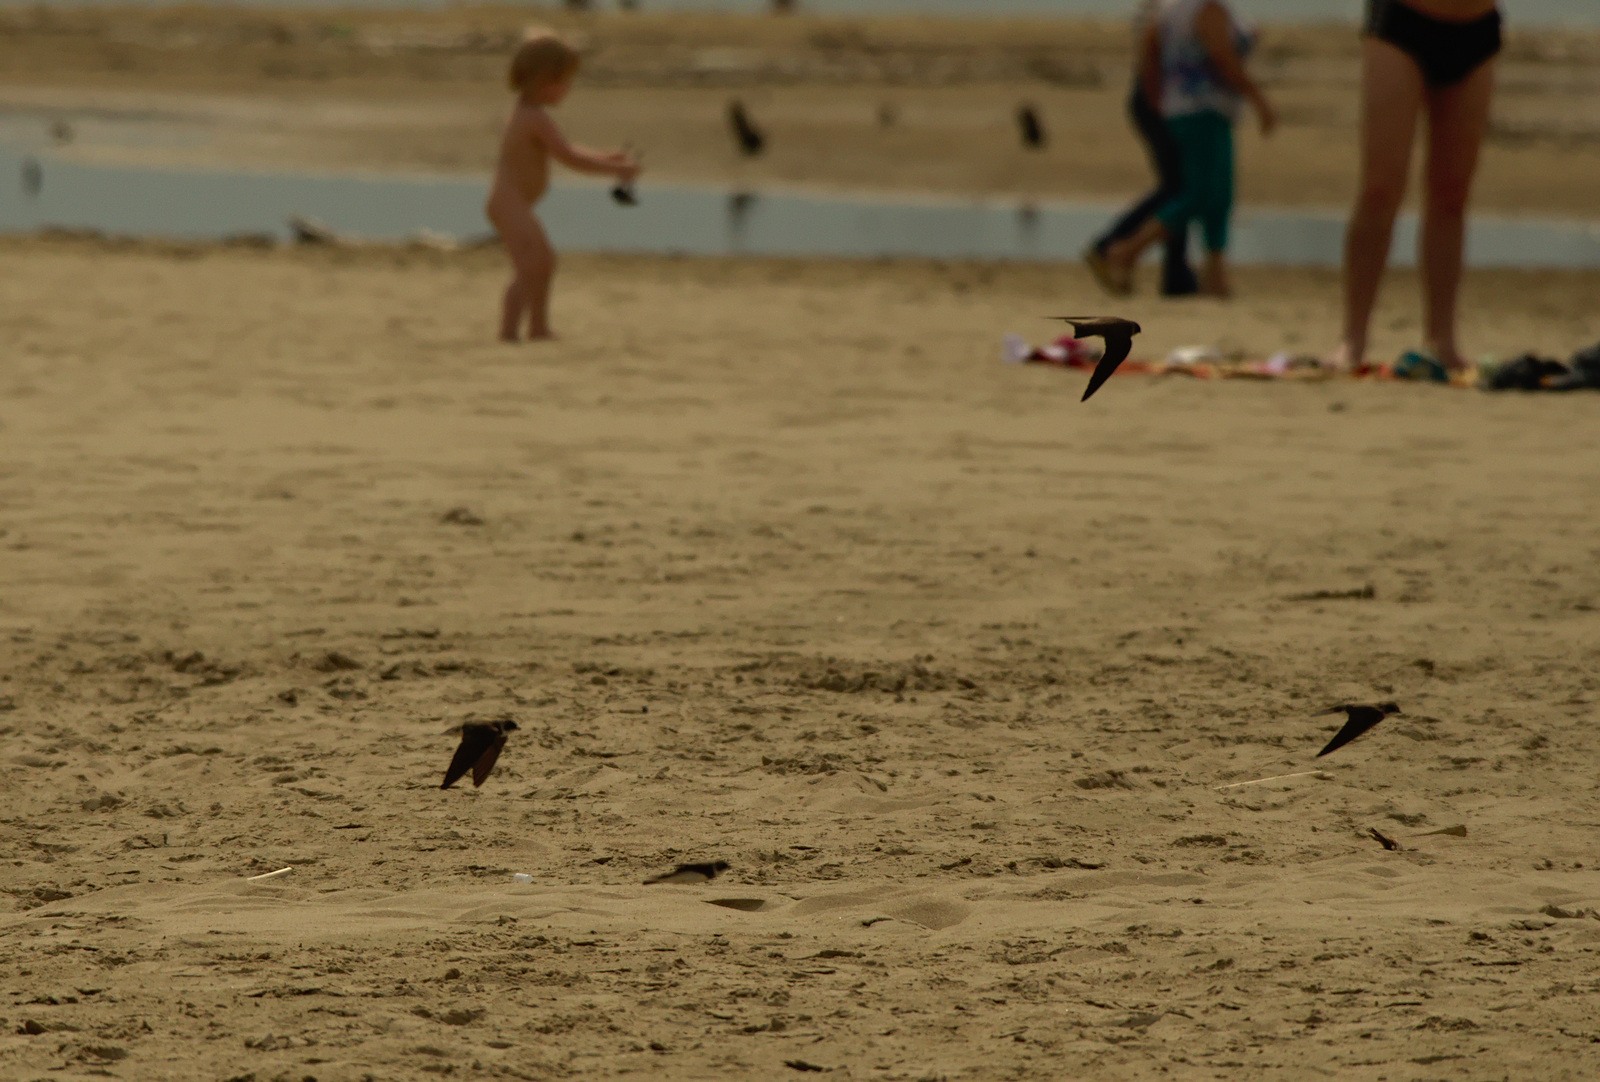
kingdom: Animalia
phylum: Chordata
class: Aves
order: Passeriformes
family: Hirundinidae
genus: Riparia
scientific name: Riparia riparia
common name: Sand martin
